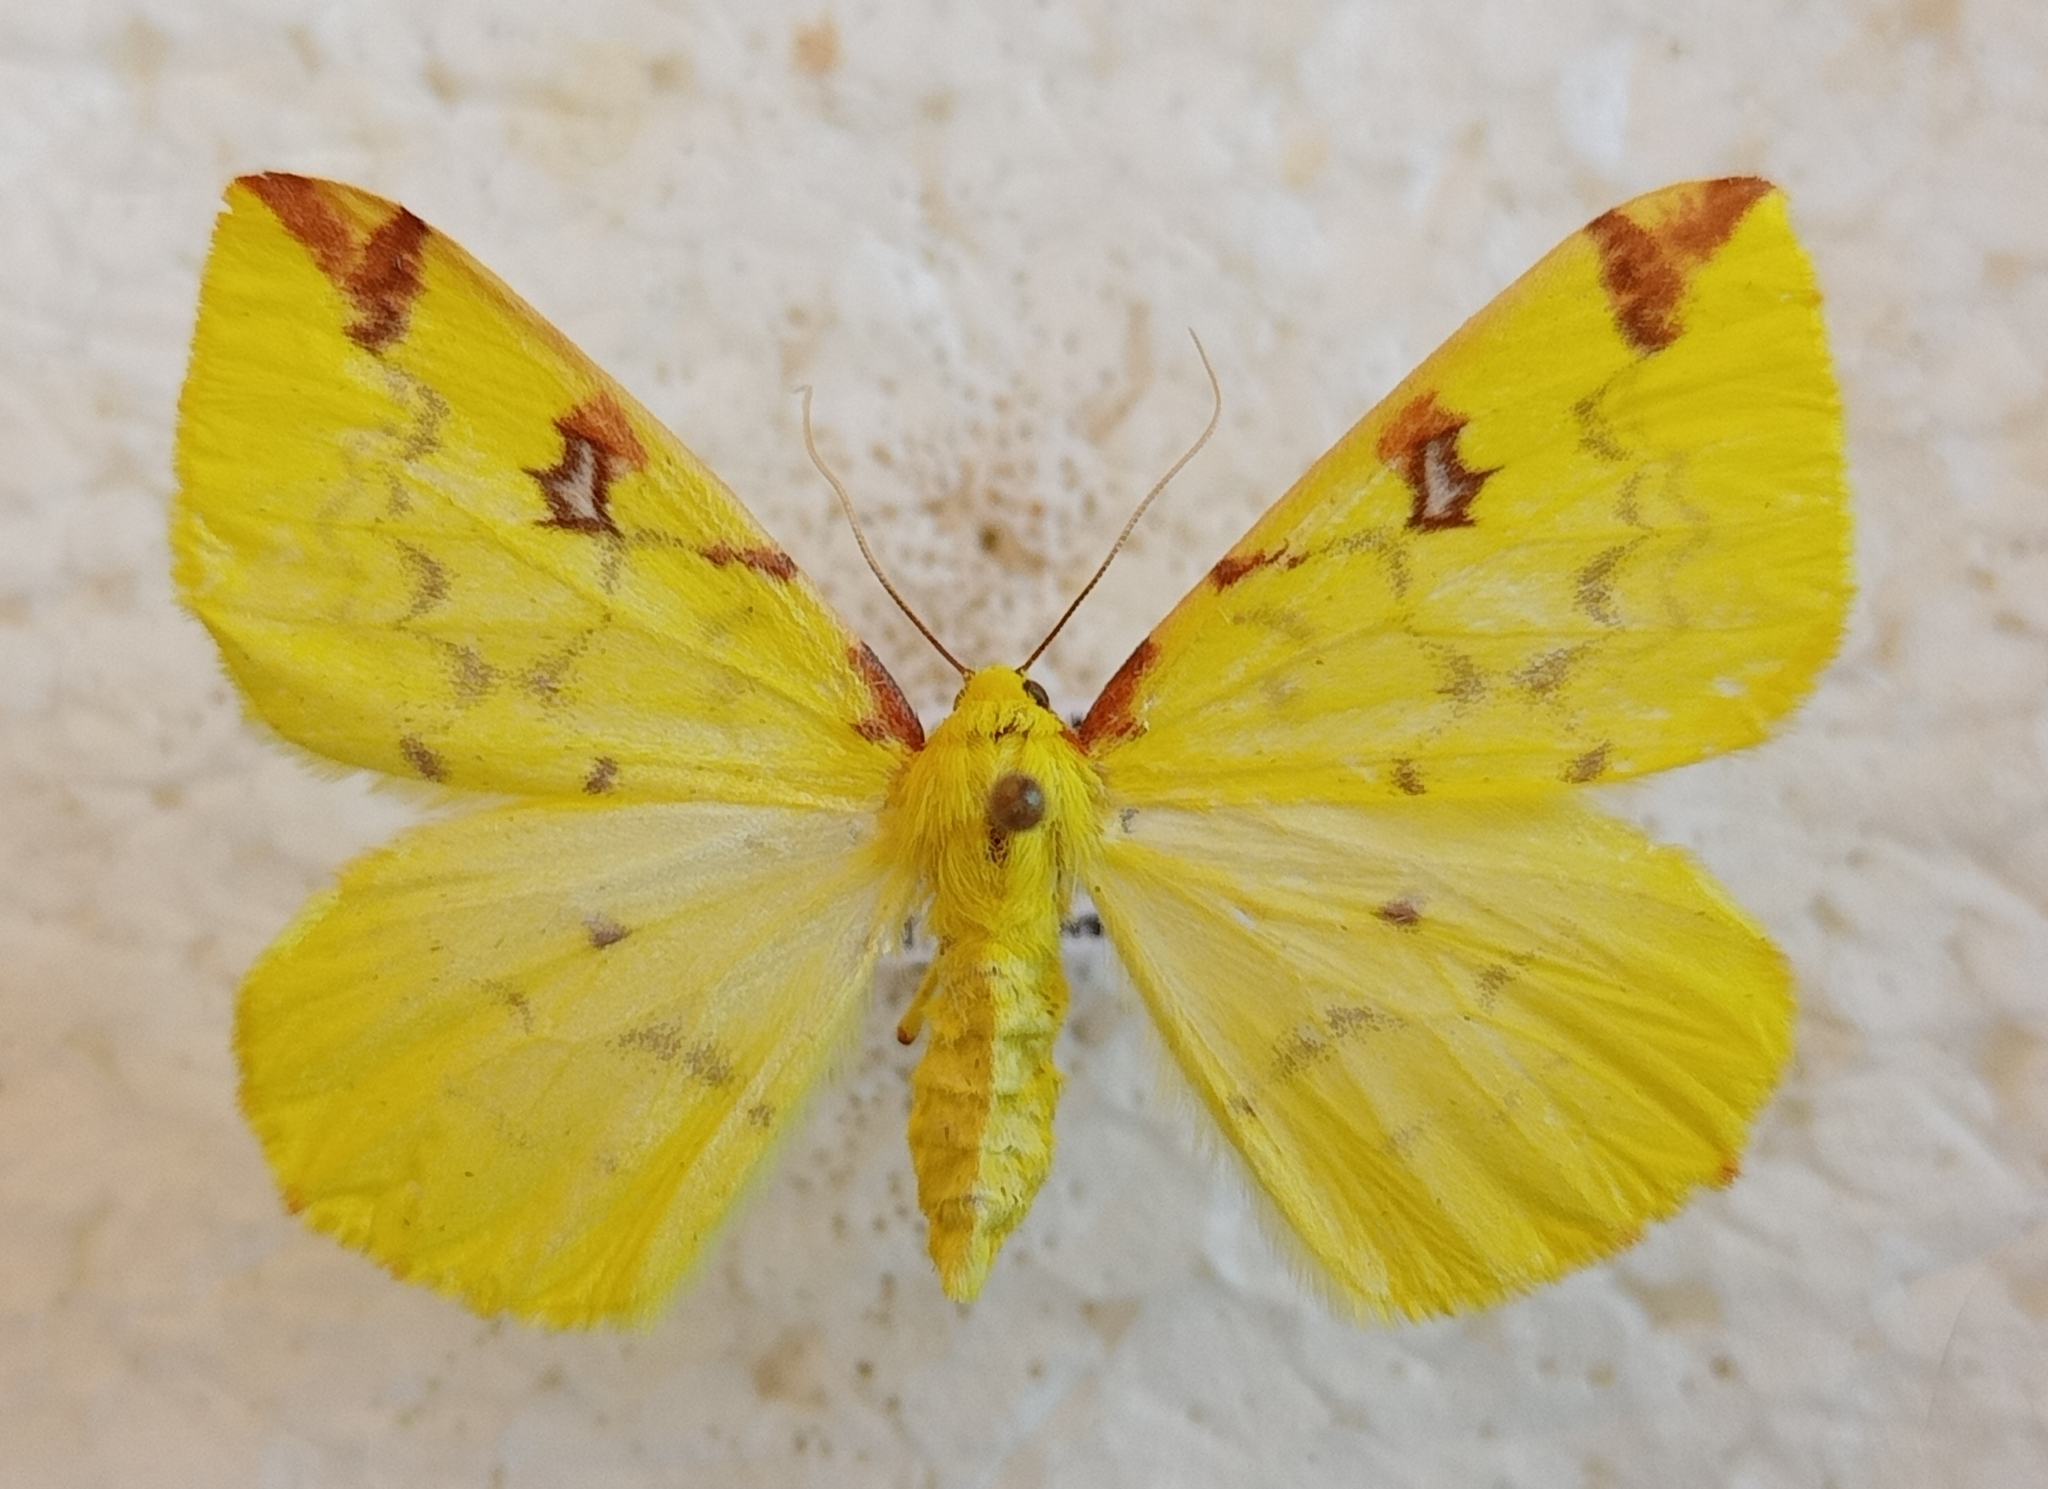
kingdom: Animalia
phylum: Arthropoda
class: Insecta
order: Lepidoptera
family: Geometridae
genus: Opisthograptis
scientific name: Opisthograptis luteolata
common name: Brimstone moth
